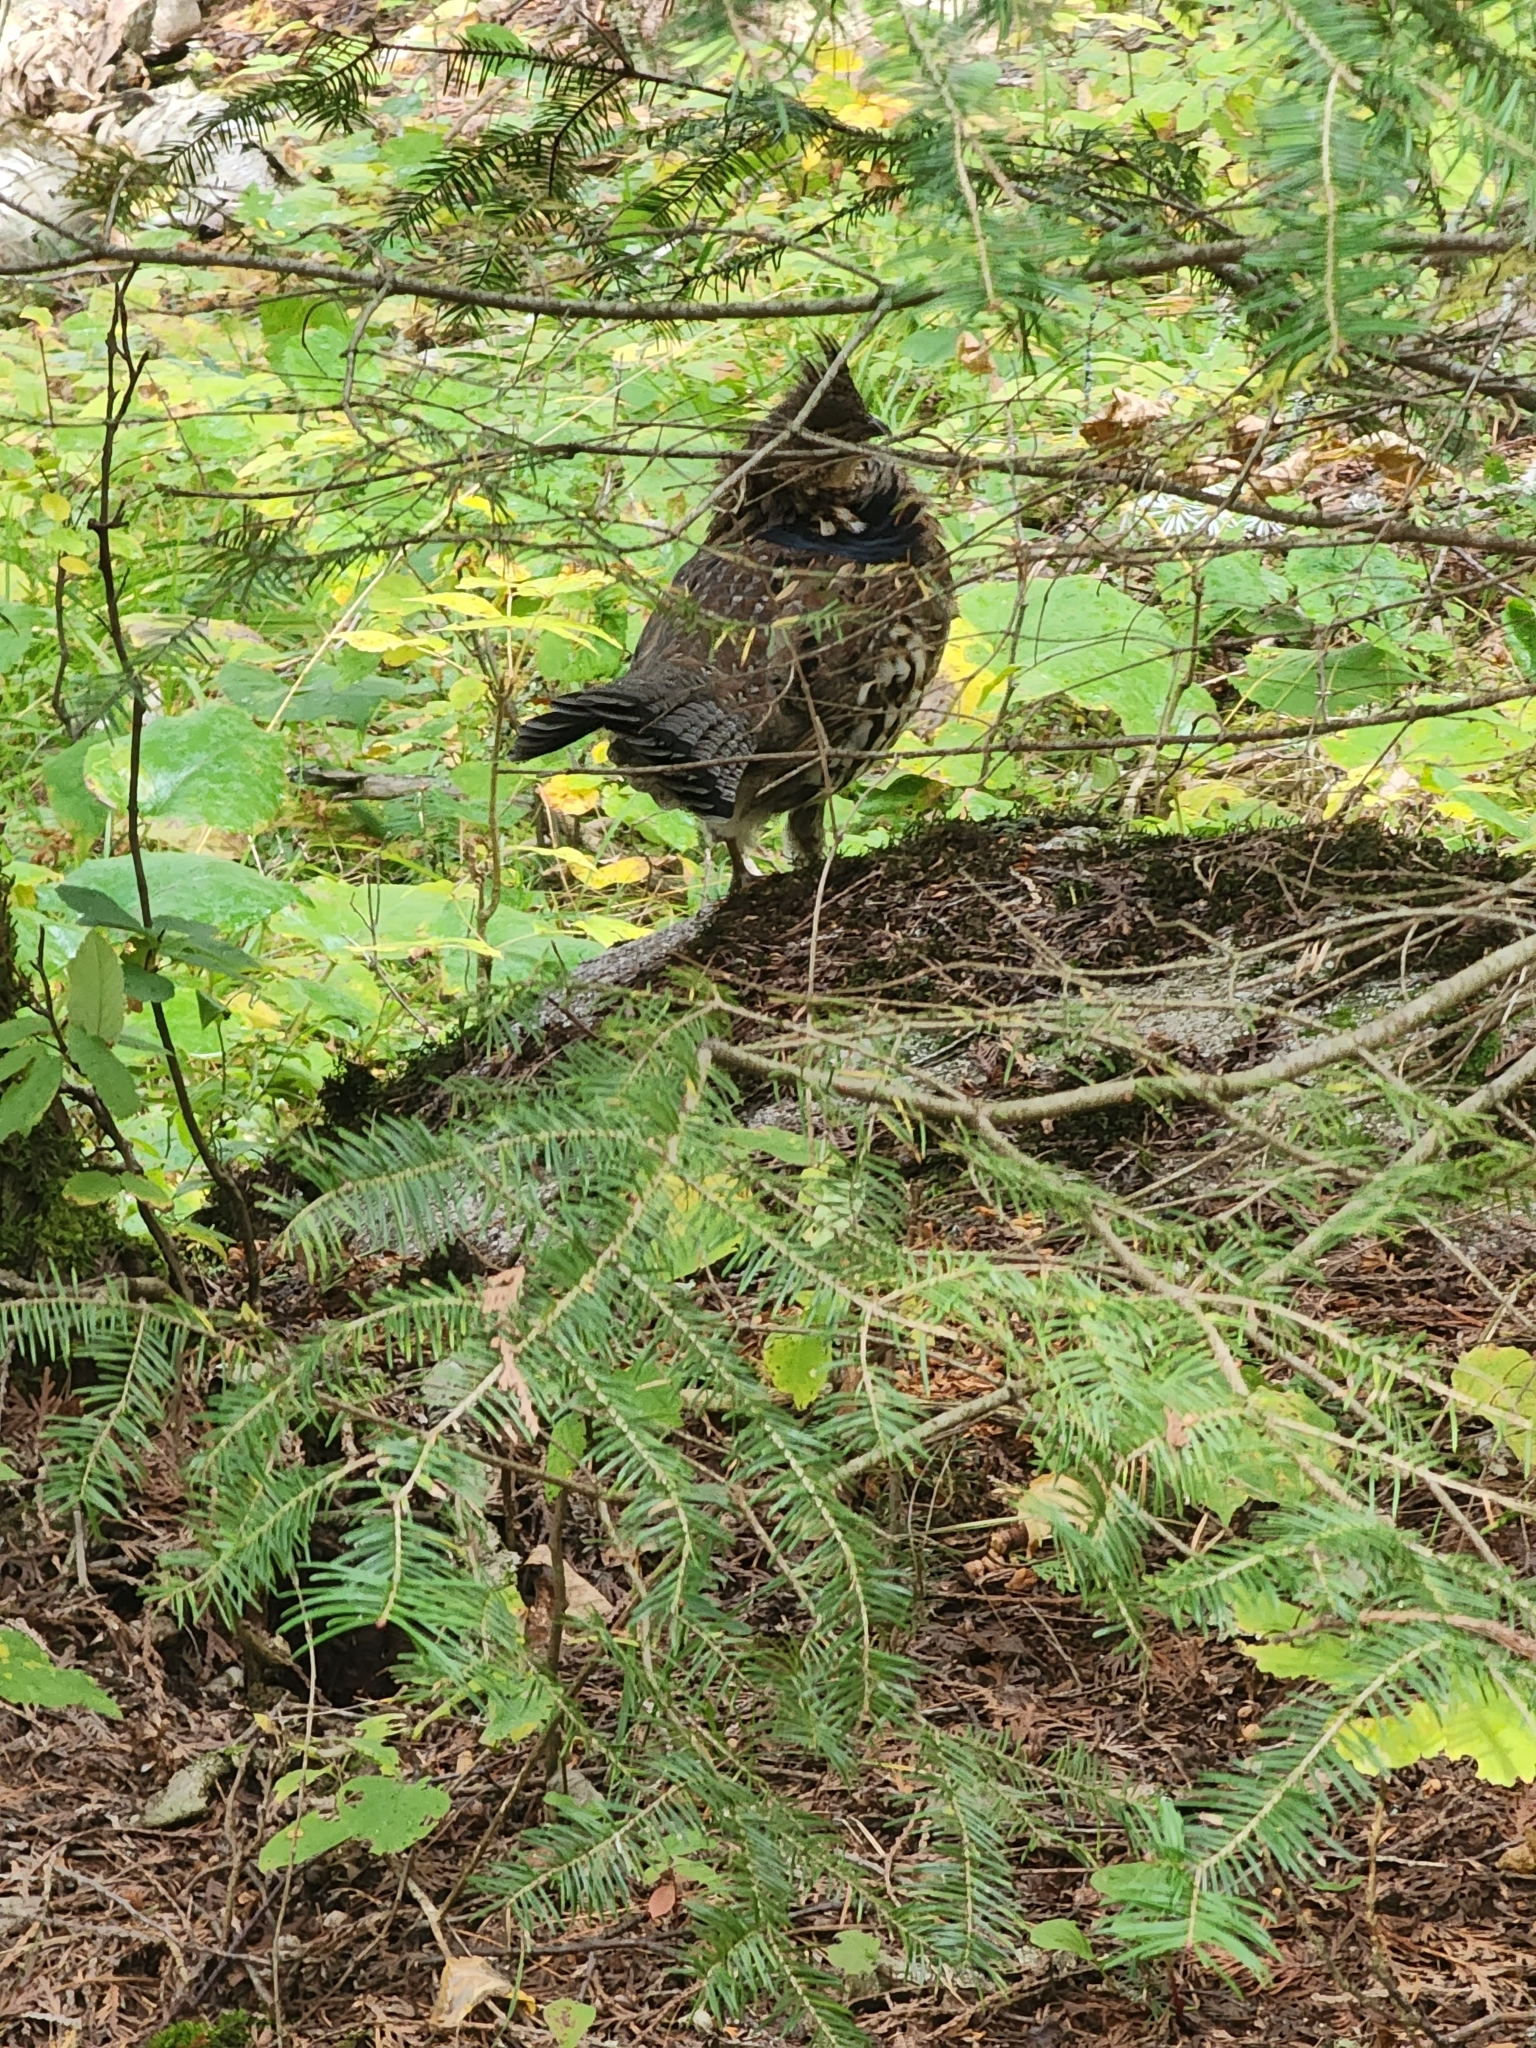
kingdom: Animalia
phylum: Chordata
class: Aves
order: Galliformes
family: Phasianidae
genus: Bonasa
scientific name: Bonasa umbellus
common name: Ruffed grouse
